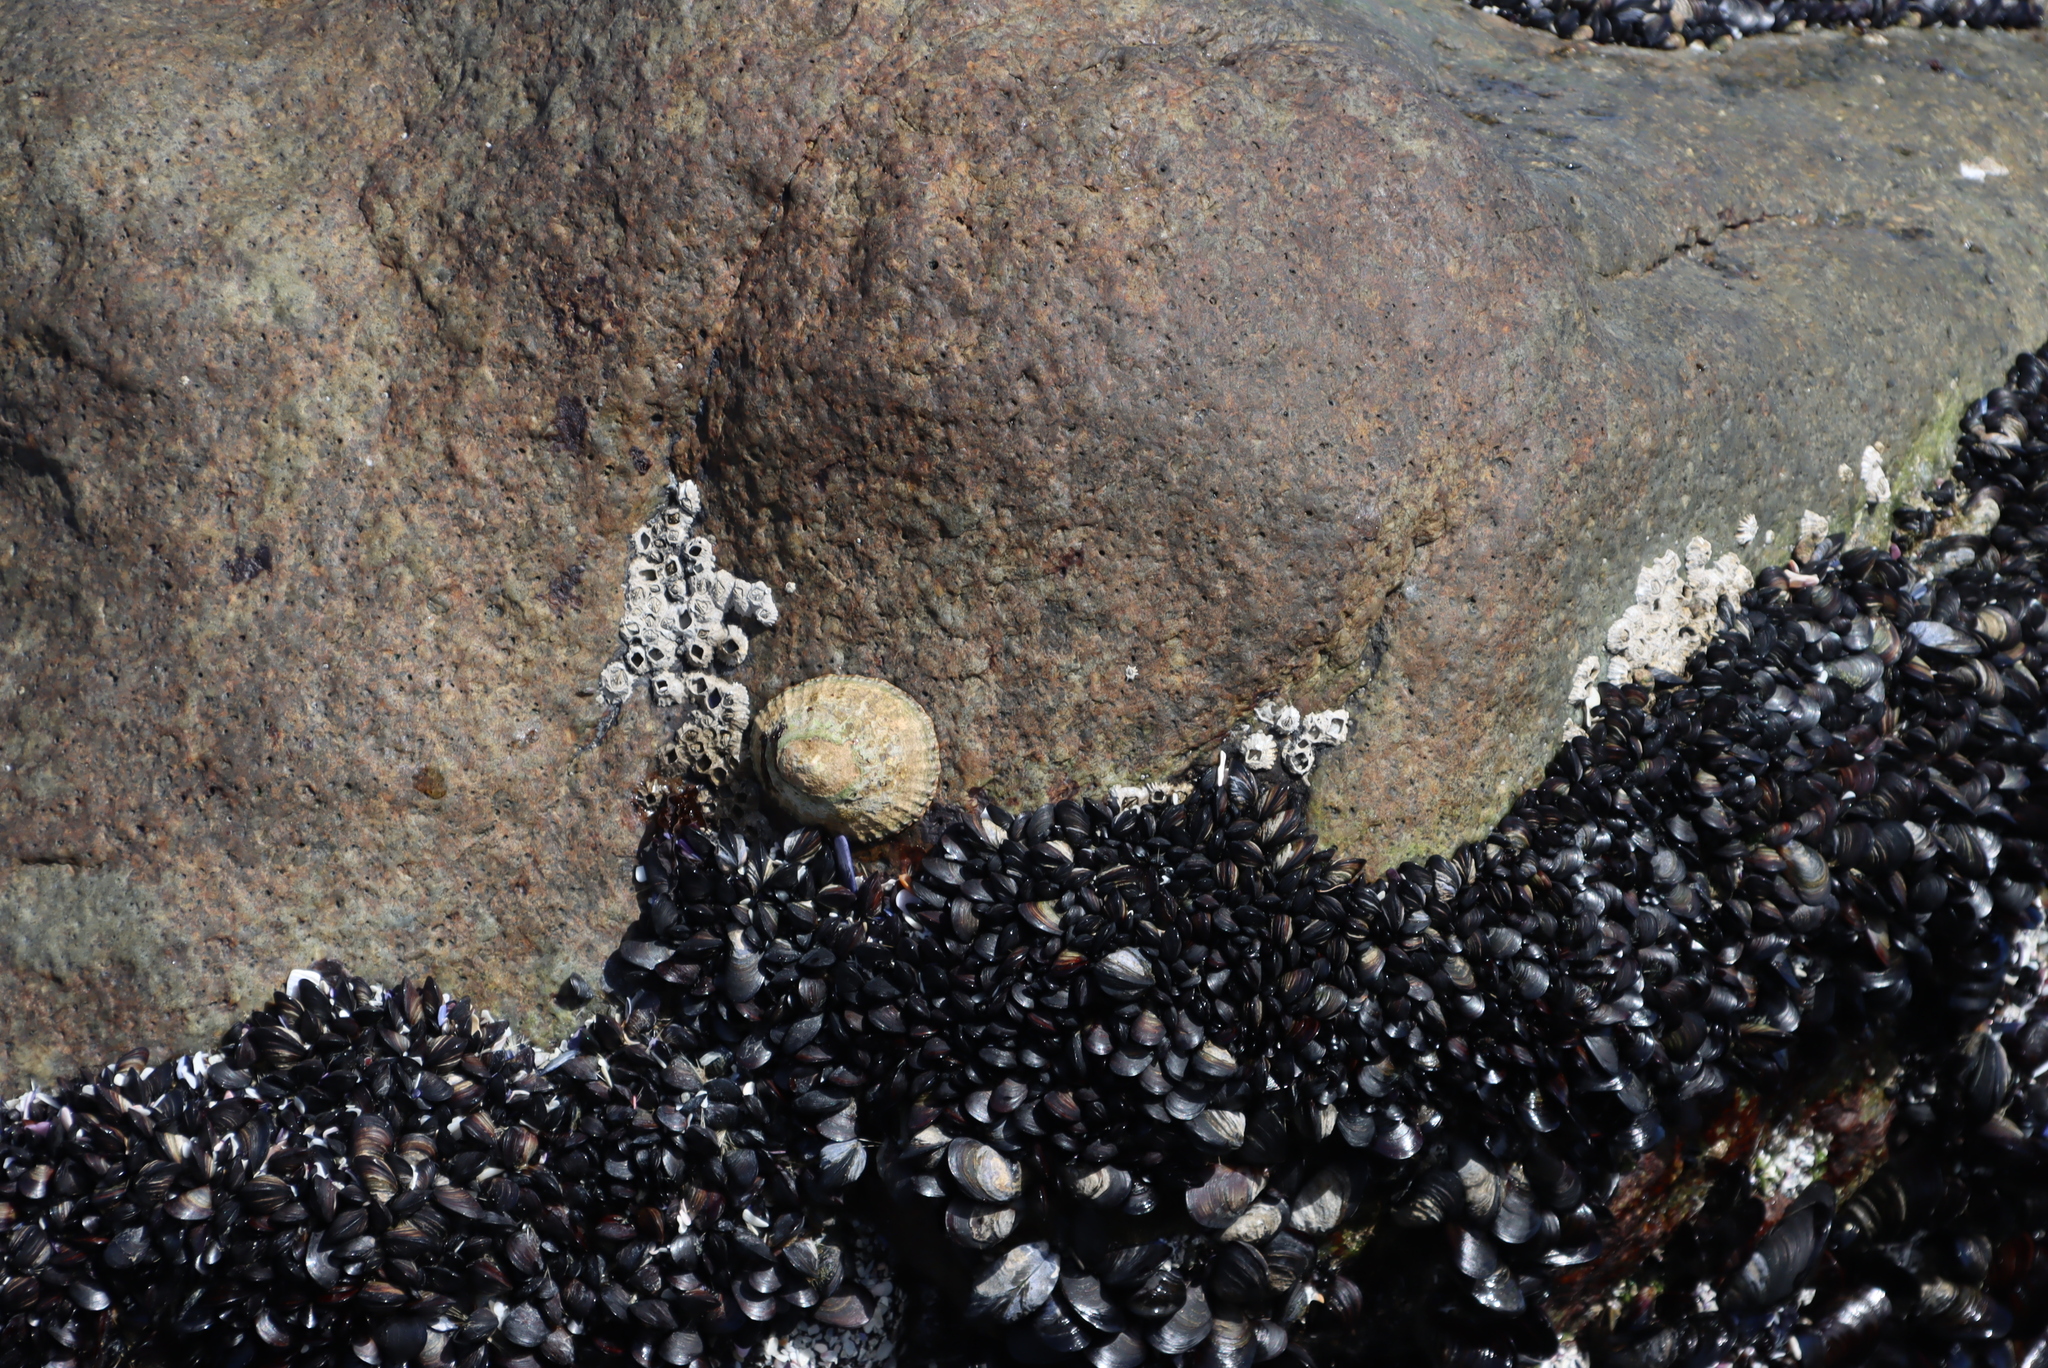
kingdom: Animalia
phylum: Arthropoda
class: Maxillopoda
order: Sessilia
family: Chthamalidae
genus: Chthamalus
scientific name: Chthamalus dentatus
